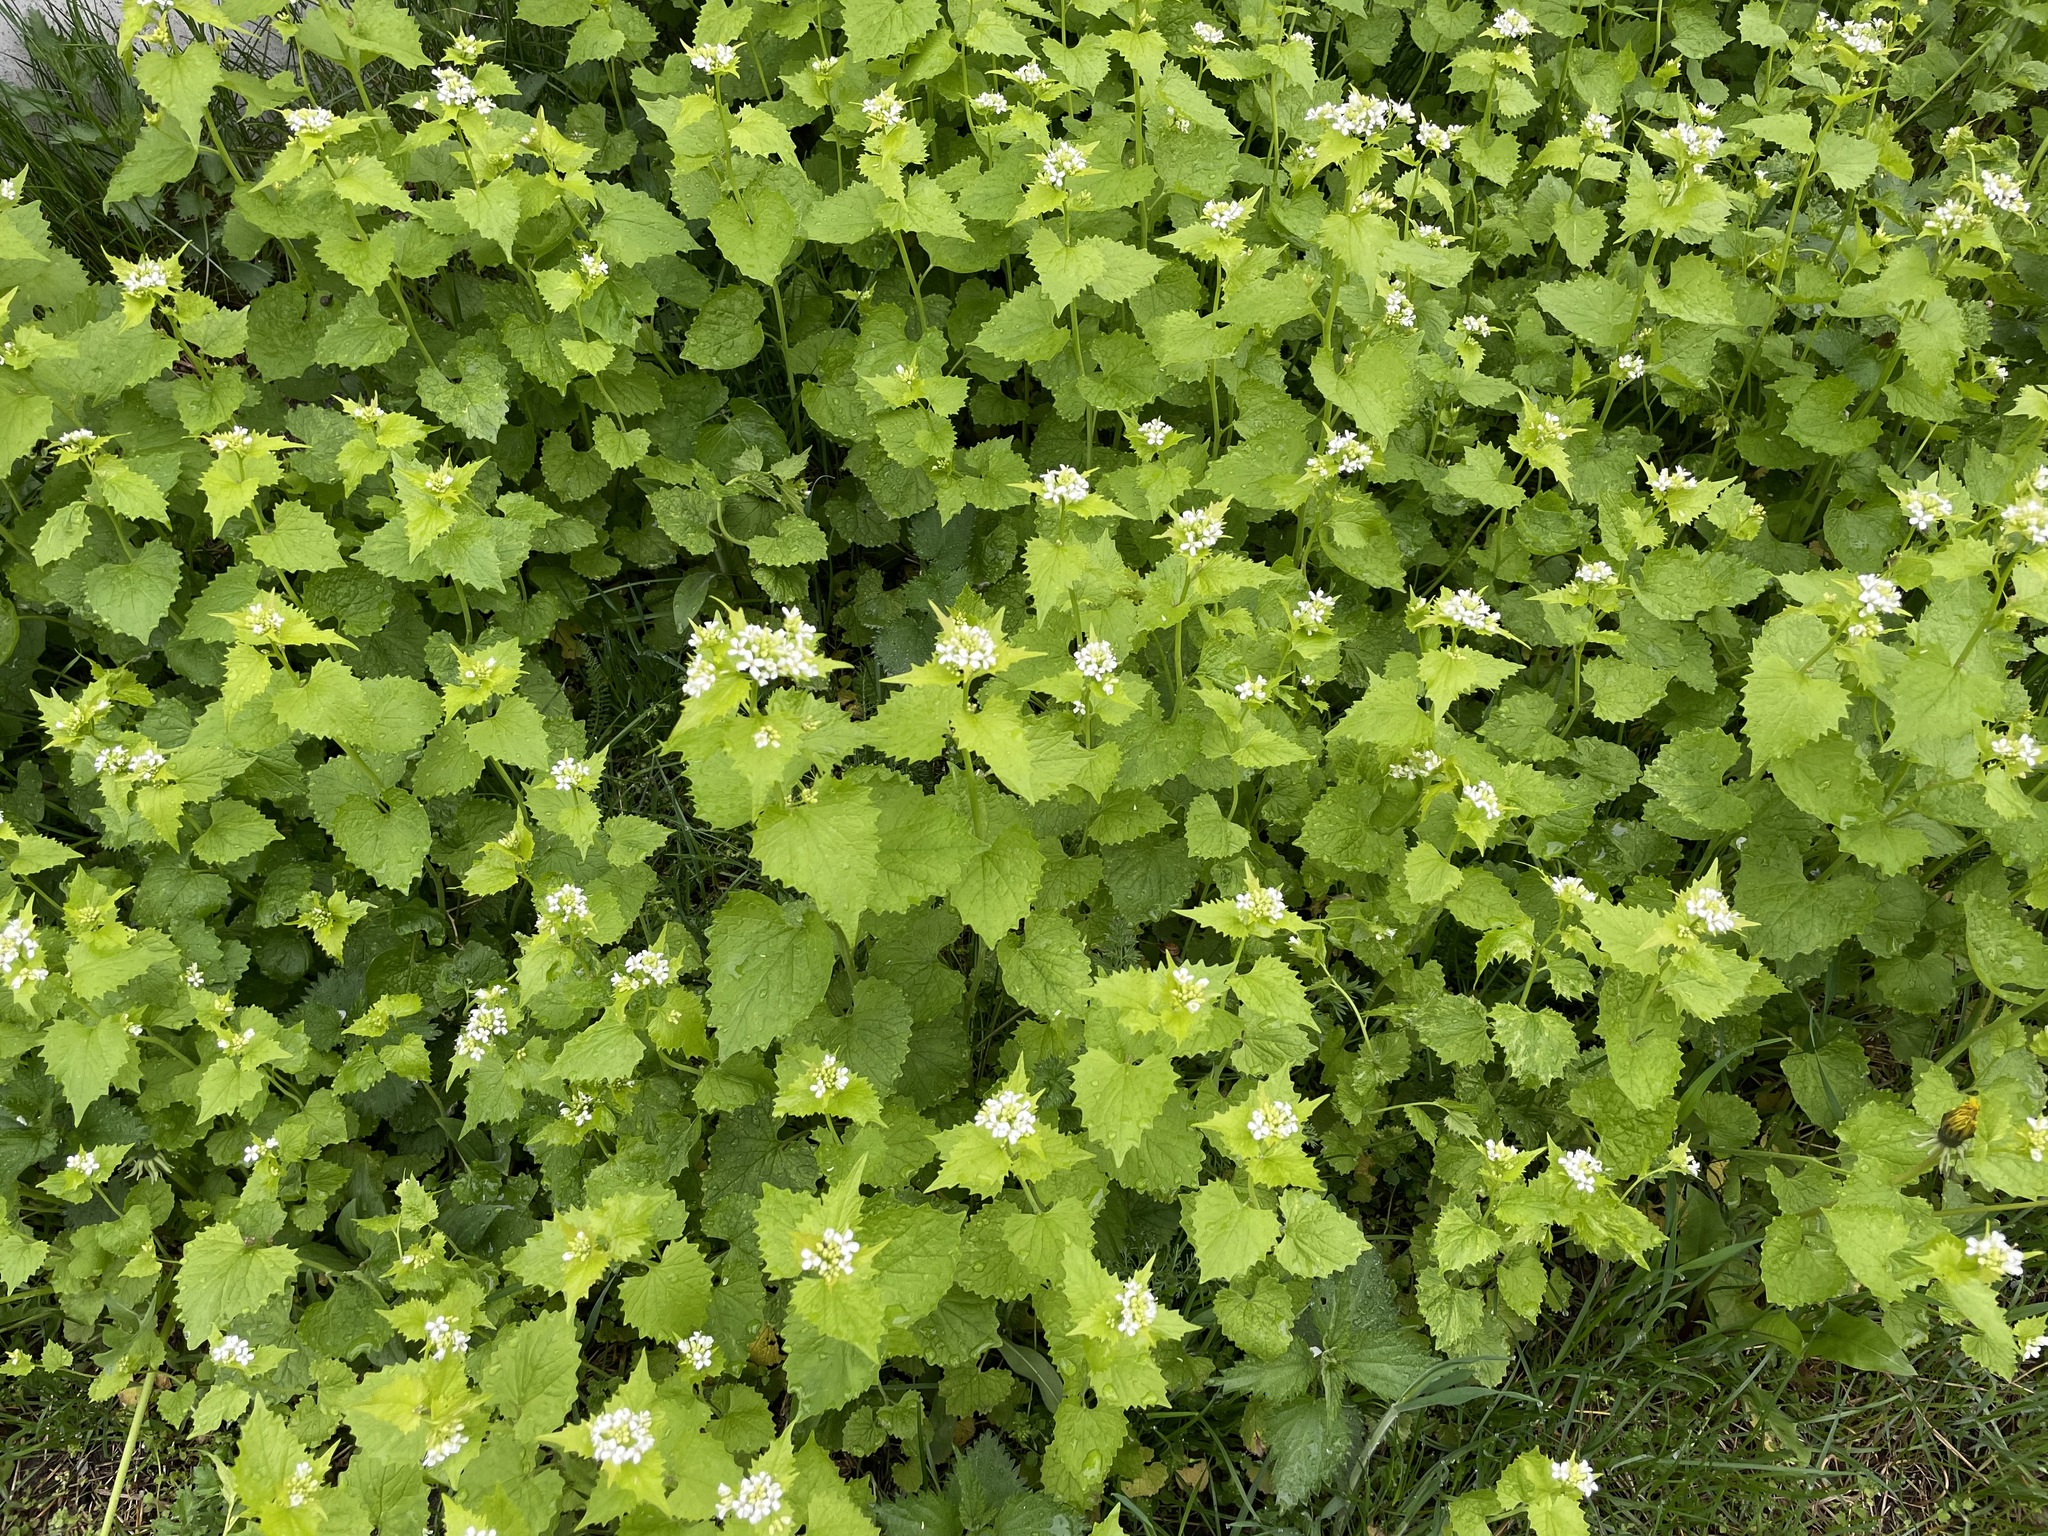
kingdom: Plantae
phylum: Tracheophyta
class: Magnoliopsida
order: Brassicales
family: Brassicaceae
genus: Alliaria
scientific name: Alliaria petiolata
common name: Garlic mustard
